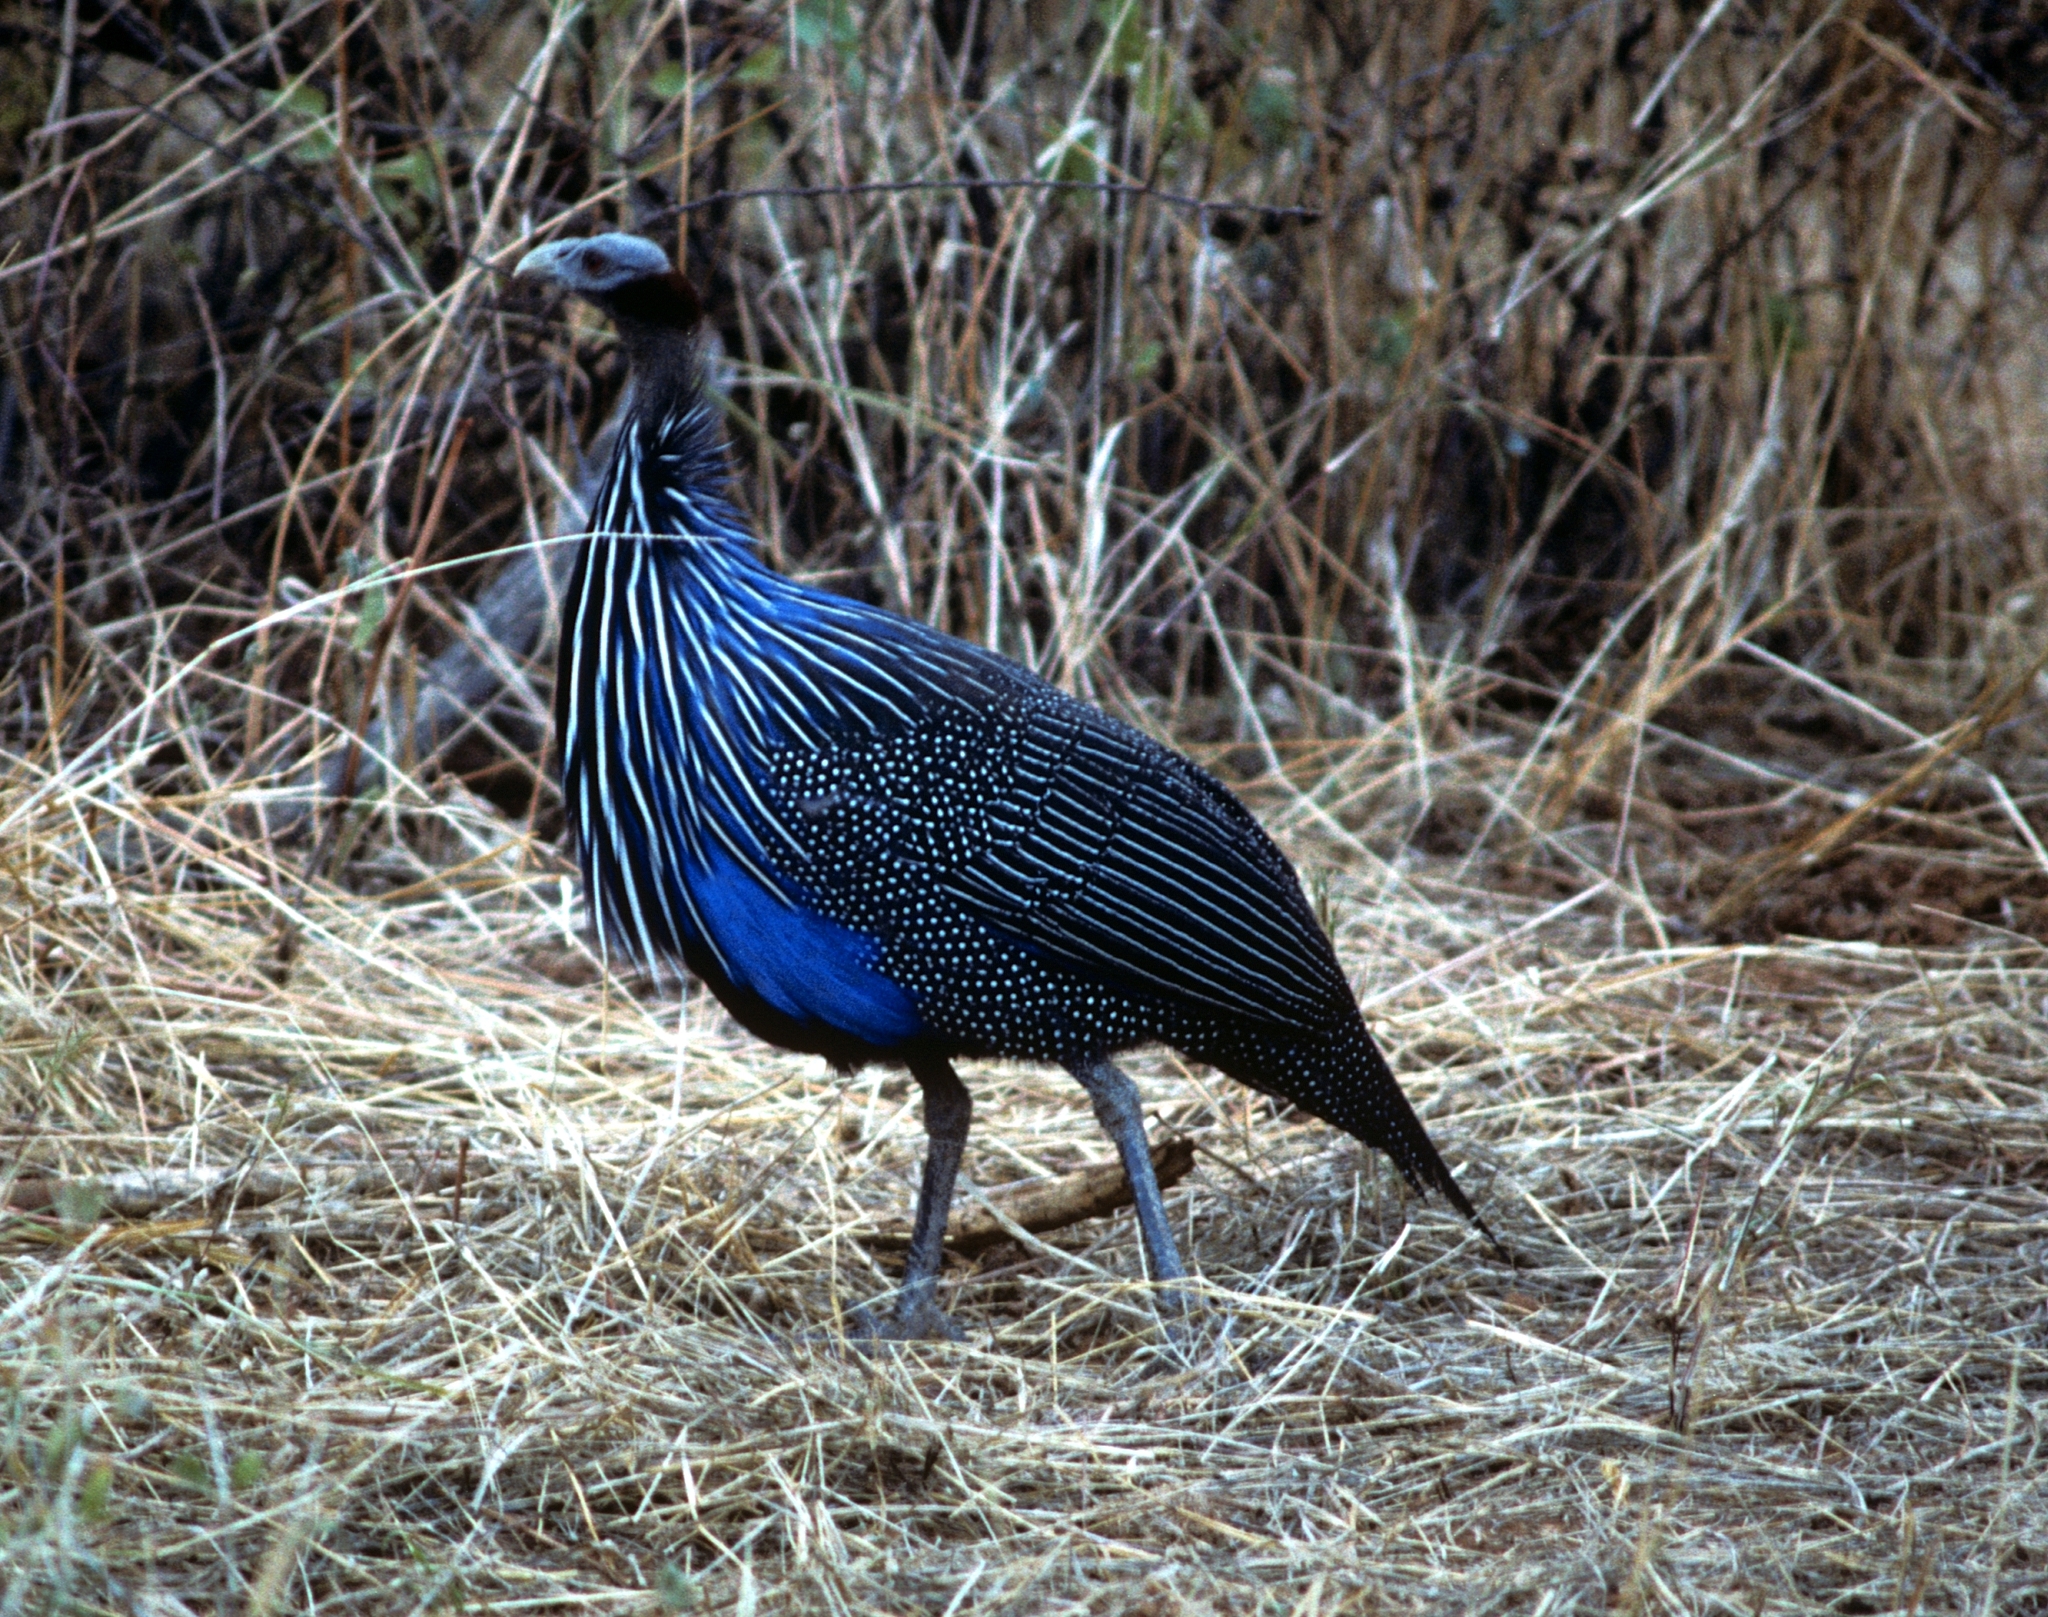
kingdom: Animalia
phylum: Chordata
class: Aves
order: Galliformes
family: Numididae
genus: Acryllium
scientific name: Acryllium vulturinum
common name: Vulturine guineafowl
